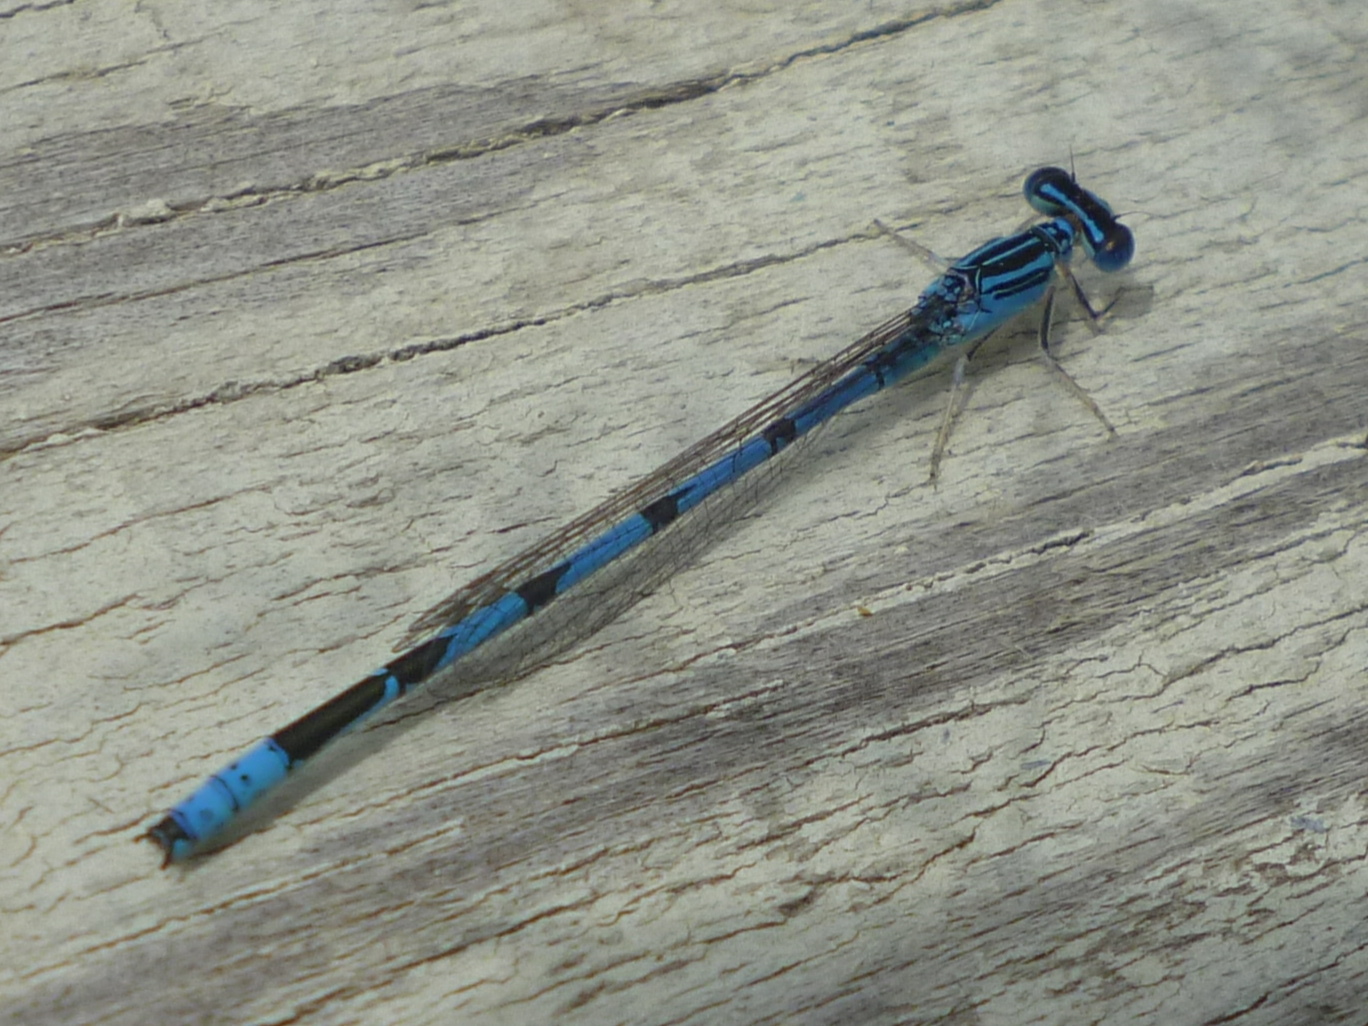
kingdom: Animalia
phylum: Arthropoda
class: Insecta
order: Odonata
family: Coenagrionidae
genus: Enallagma
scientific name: Enallagma basidens
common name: Double-striped bluet
